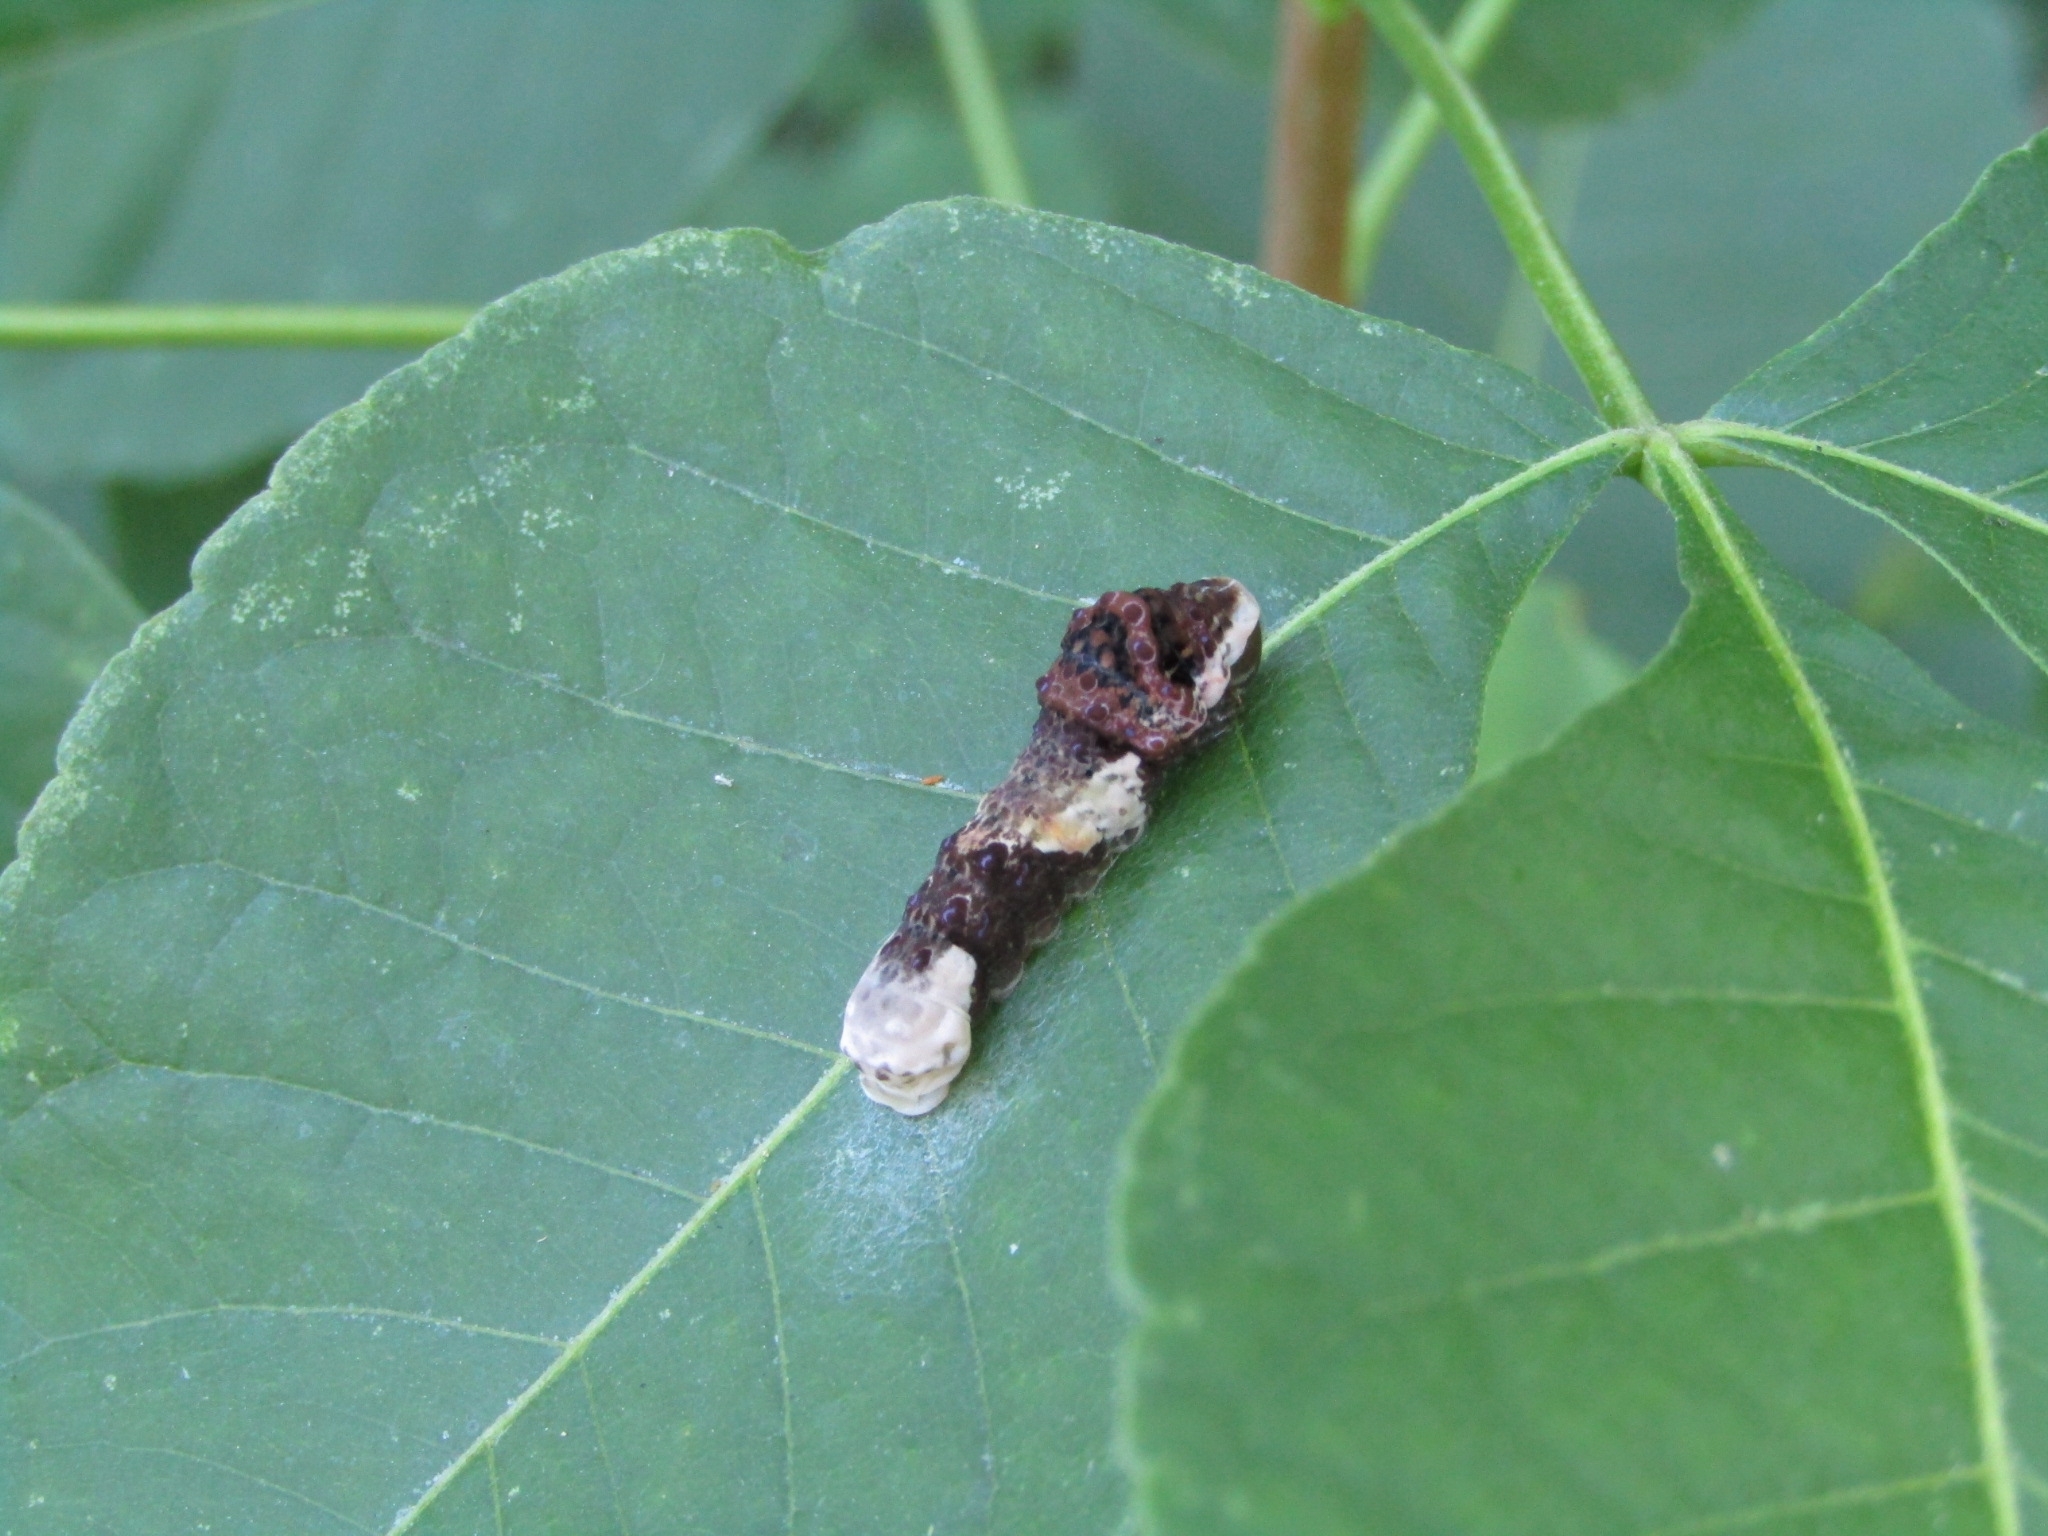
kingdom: Animalia
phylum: Arthropoda
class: Insecta
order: Lepidoptera
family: Papilionidae
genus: Papilio
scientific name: Papilio cresphontes
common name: Giant swallowtail
